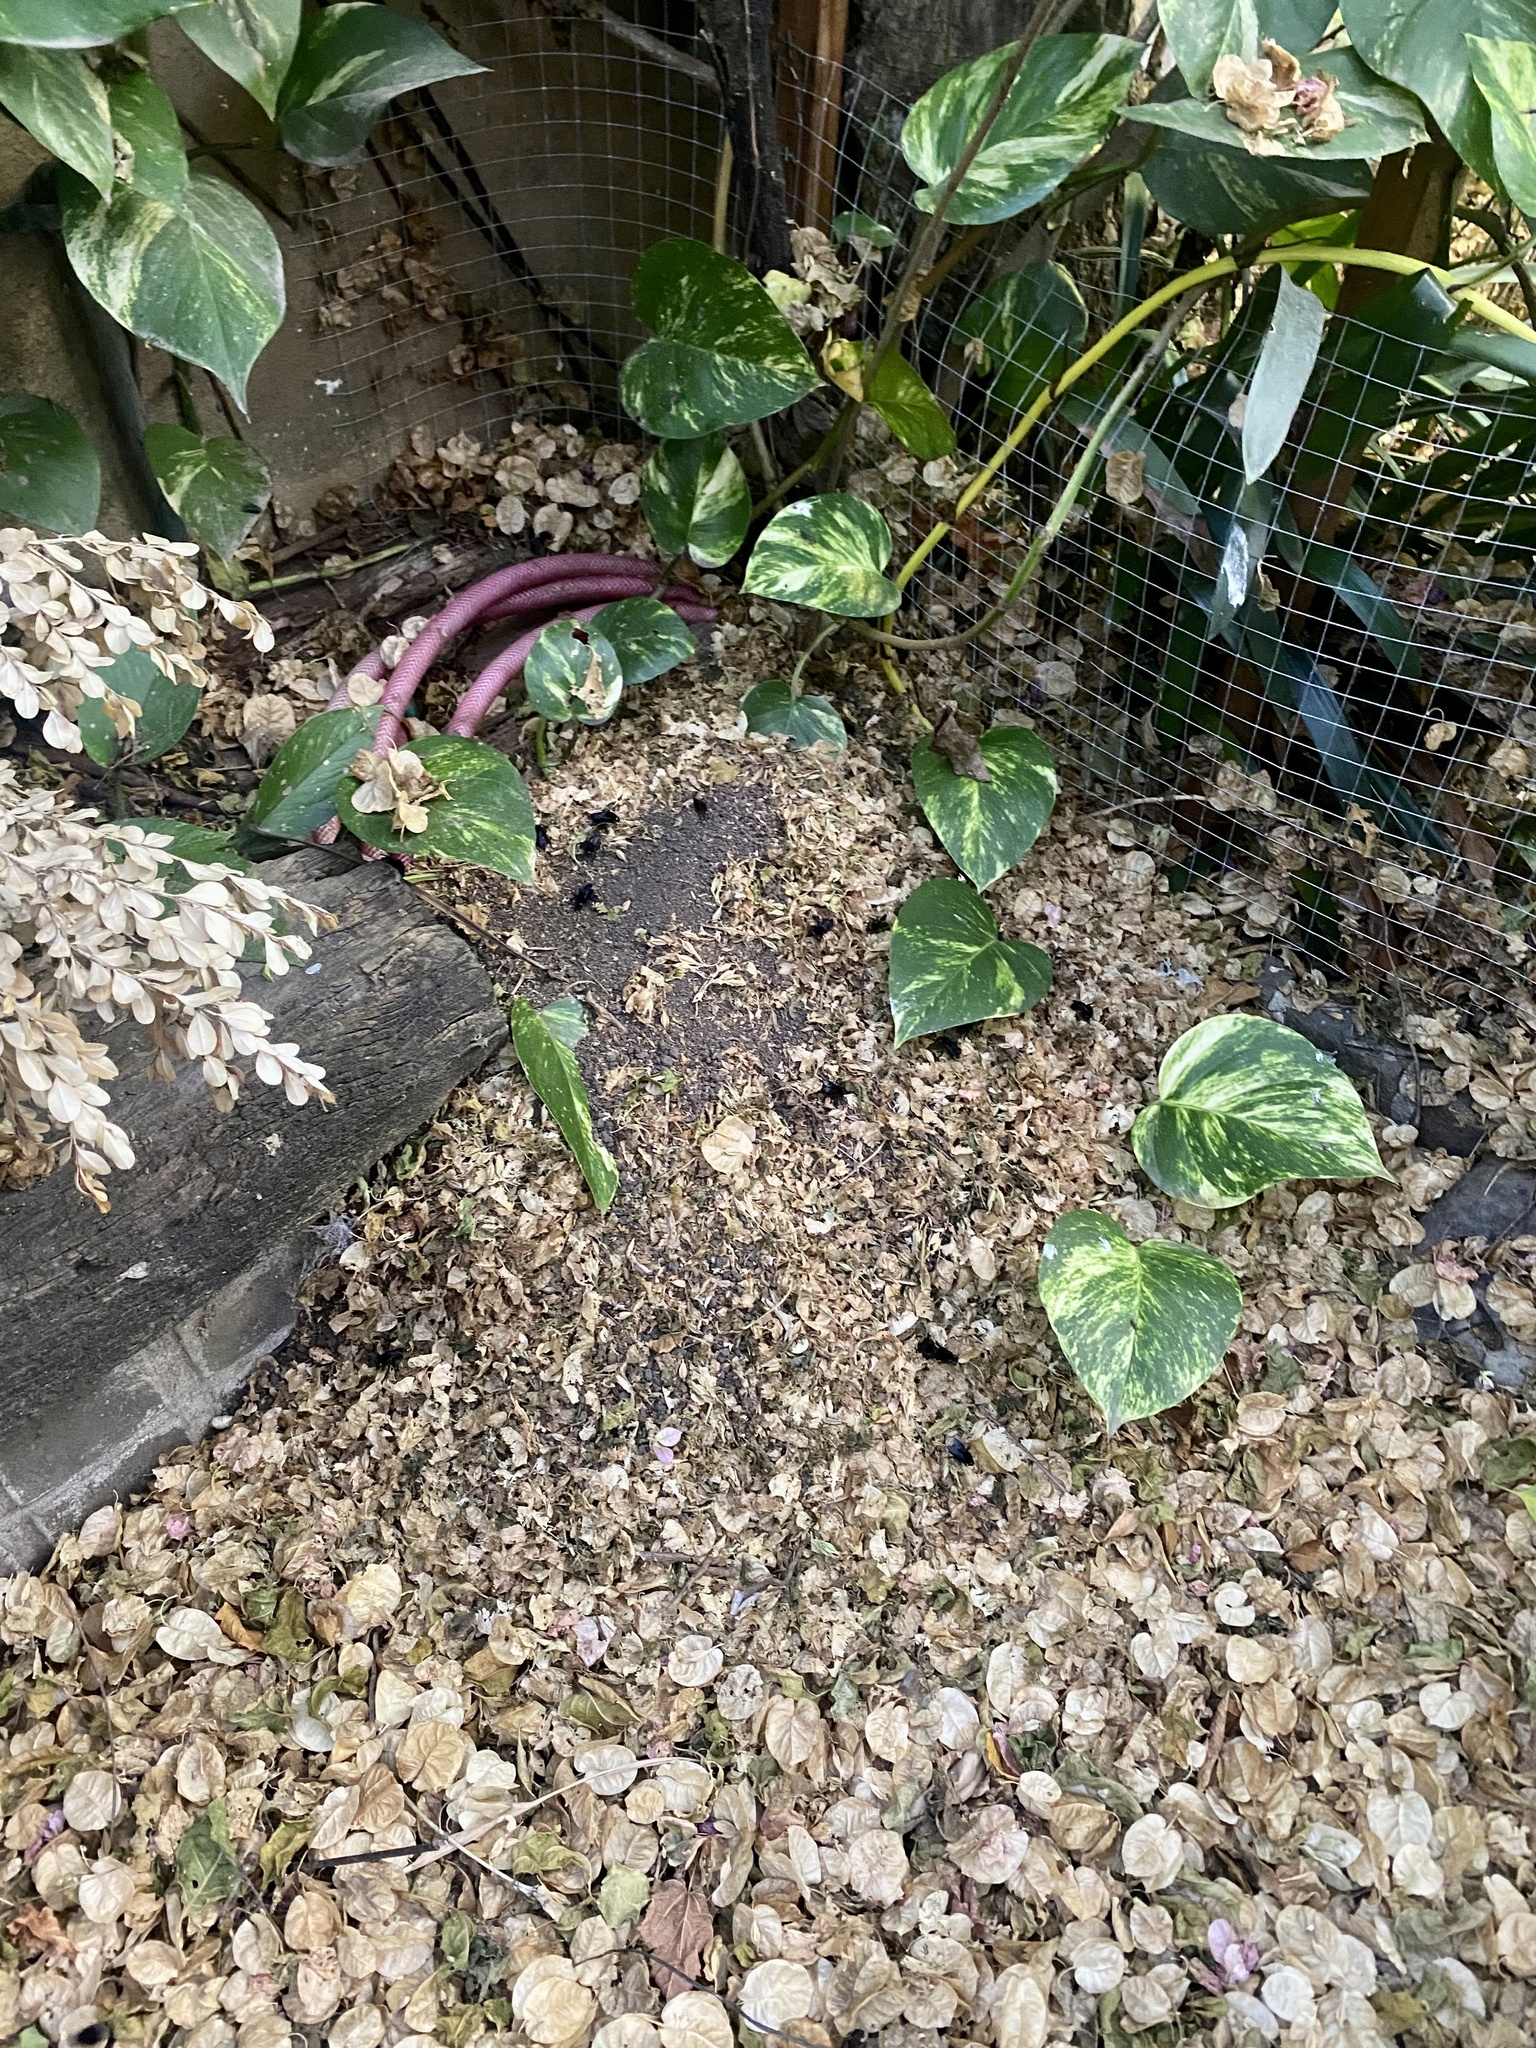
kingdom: Animalia
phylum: Arthropoda
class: Insecta
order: Hymenoptera
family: Apidae
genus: Bombus
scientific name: Bombus pauloensis
